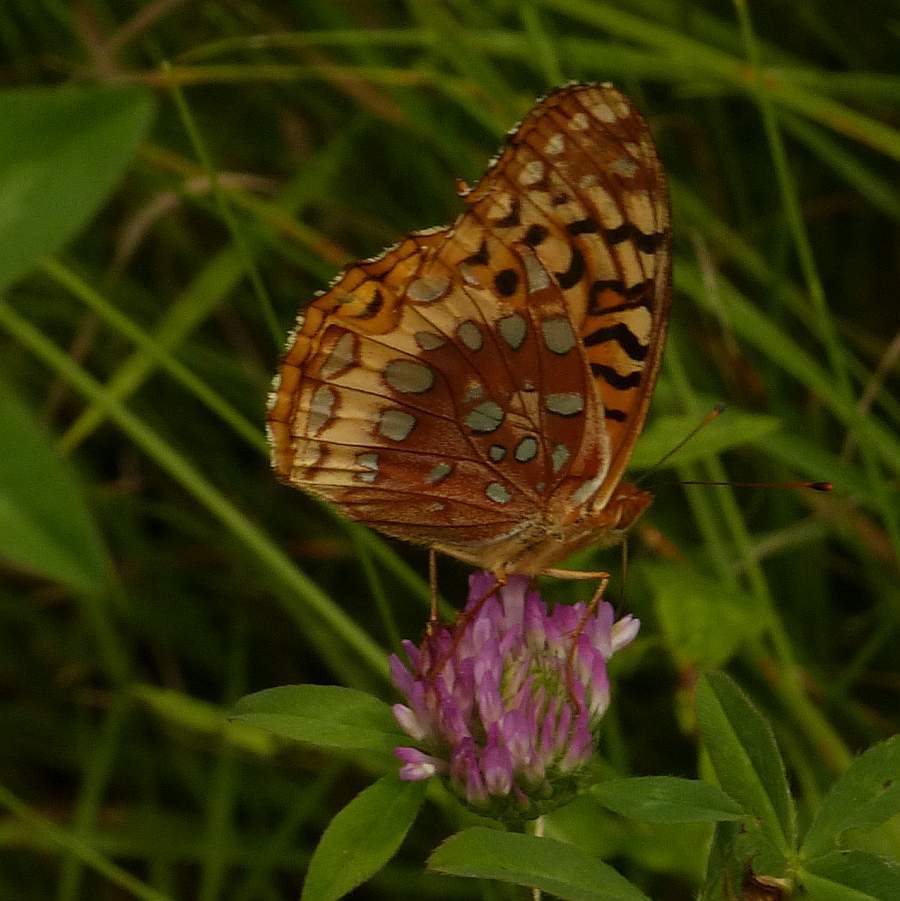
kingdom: Animalia
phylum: Arthropoda
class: Insecta
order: Lepidoptera
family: Nymphalidae
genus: Speyeria
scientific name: Speyeria cybele
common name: Great spangled fritillary
